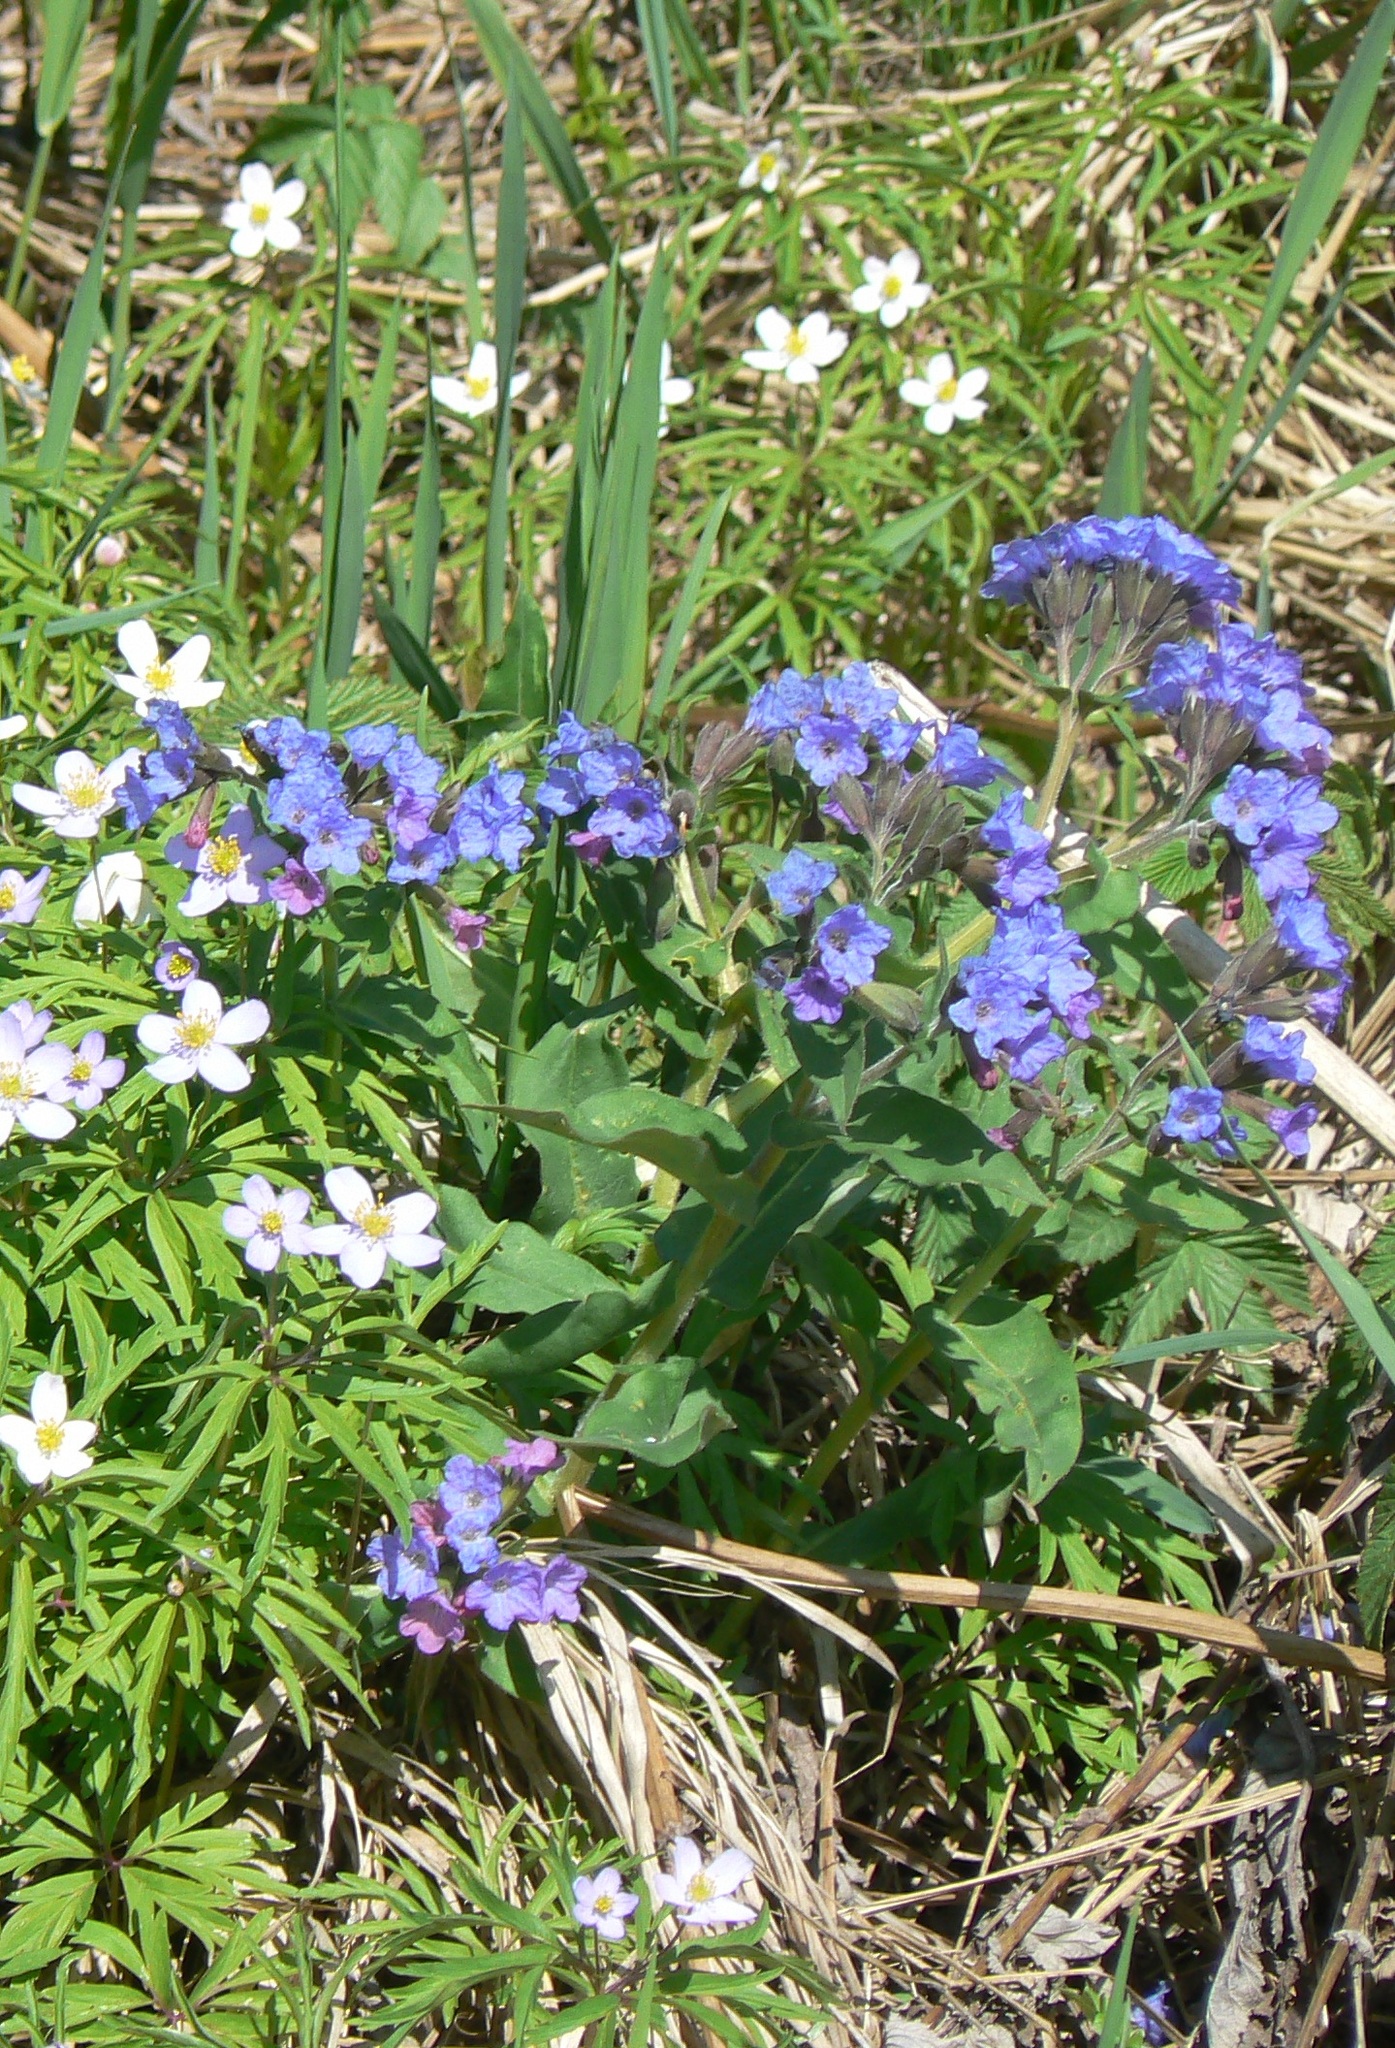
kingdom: Plantae
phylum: Tracheophyta
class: Magnoliopsida
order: Boraginales
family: Boraginaceae
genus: Pulmonaria
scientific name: Pulmonaria mollis
